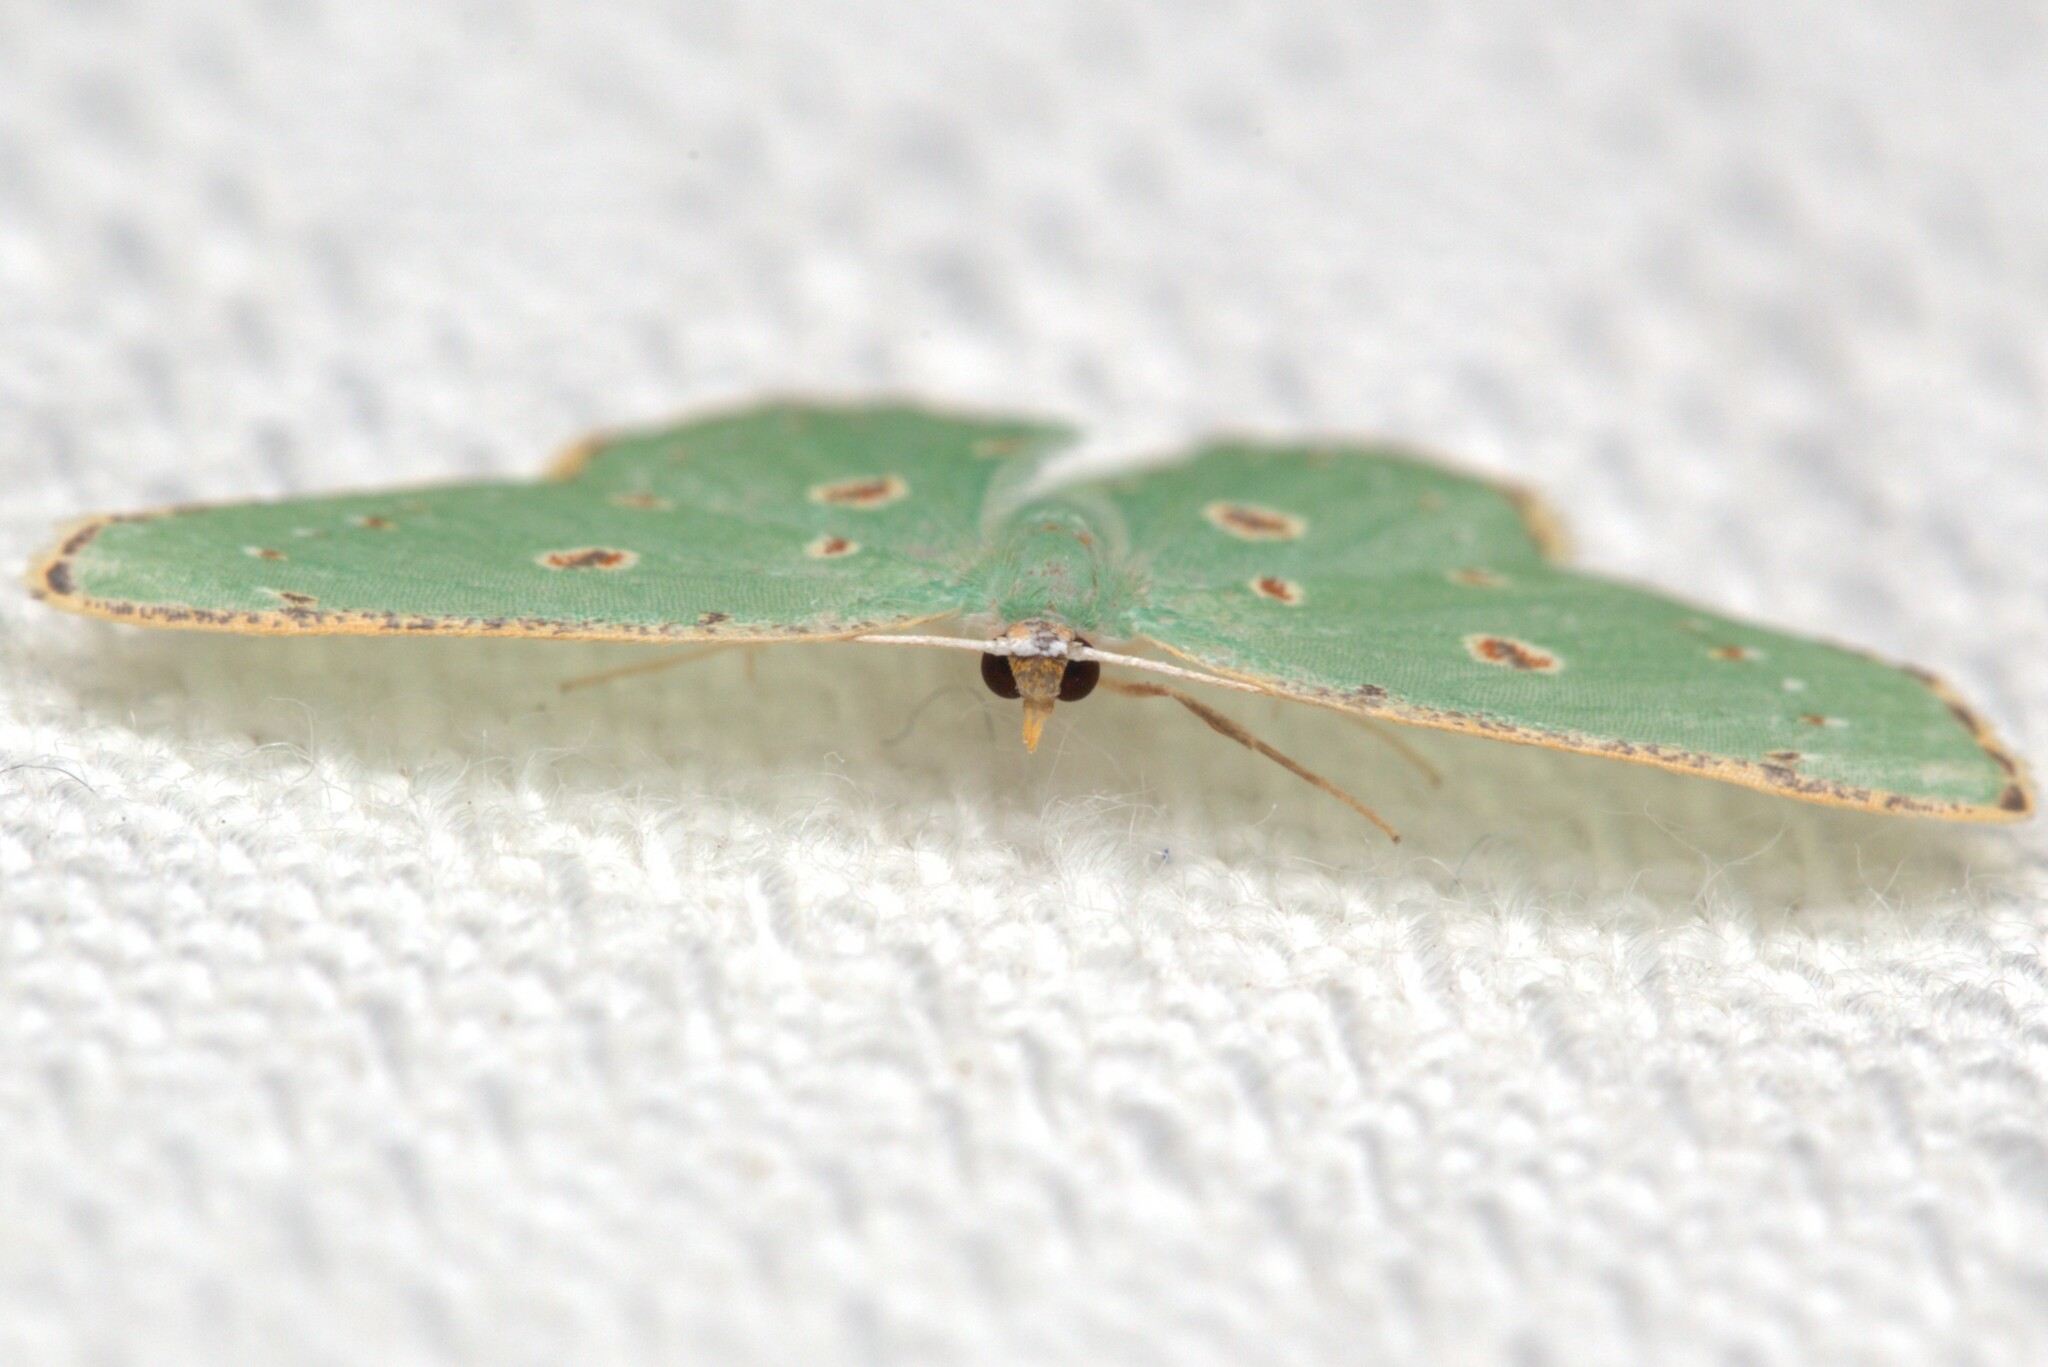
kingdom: Animalia
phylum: Arthropoda
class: Insecta
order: Lepidoptera
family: Geometridae
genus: Comostola
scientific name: Comostola laesaria
